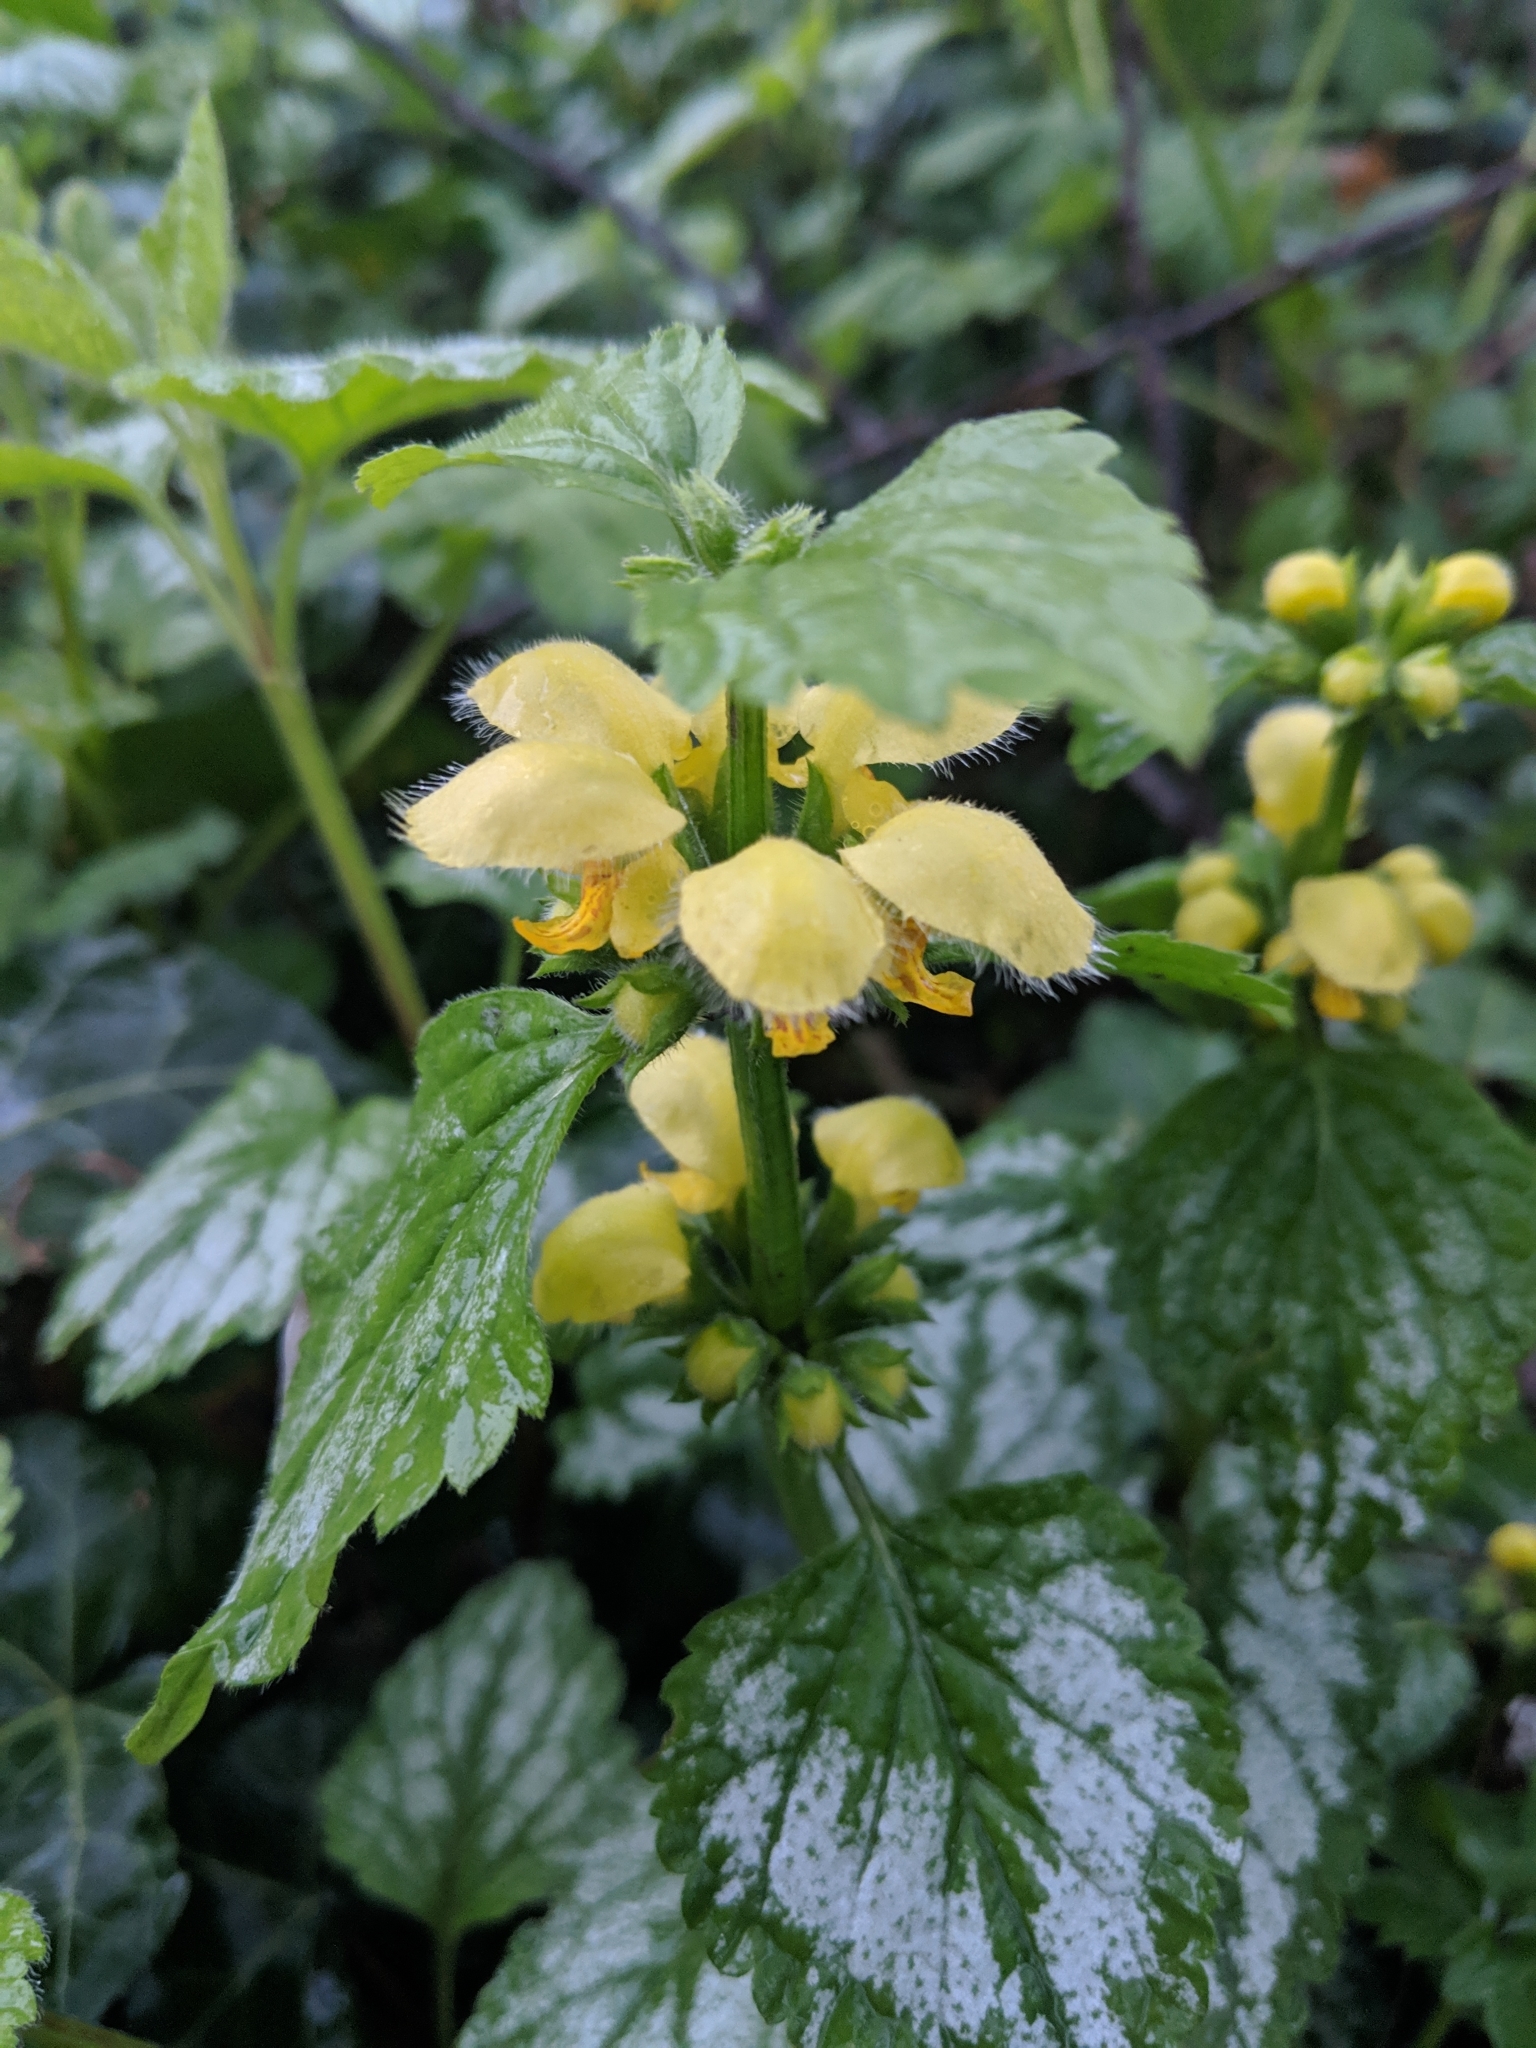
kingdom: Plantae
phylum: Tracheophyta
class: Magnoliopsida
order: Lamiales
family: Lamiaceae
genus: Lamium
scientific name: Lamium galeobdolon
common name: Yellow archangel
